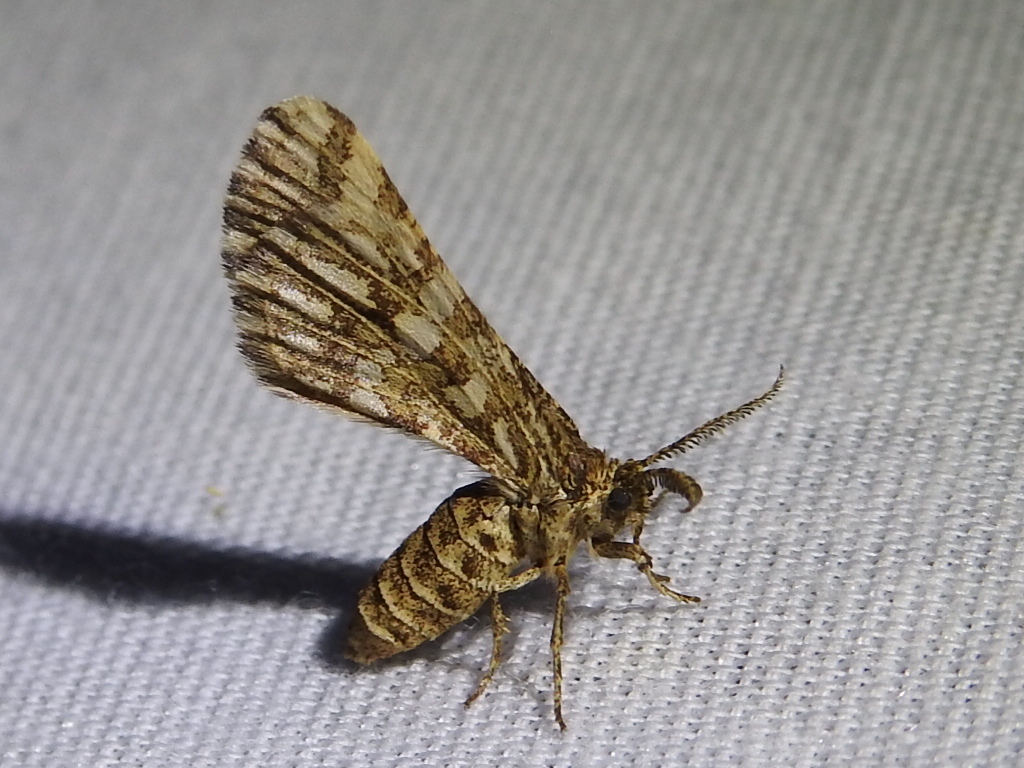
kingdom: Animalia
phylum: Arthropoda
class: Insecta
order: Lepidoptera
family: Geometridae
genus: Narraga
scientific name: Narraga fimetaria
